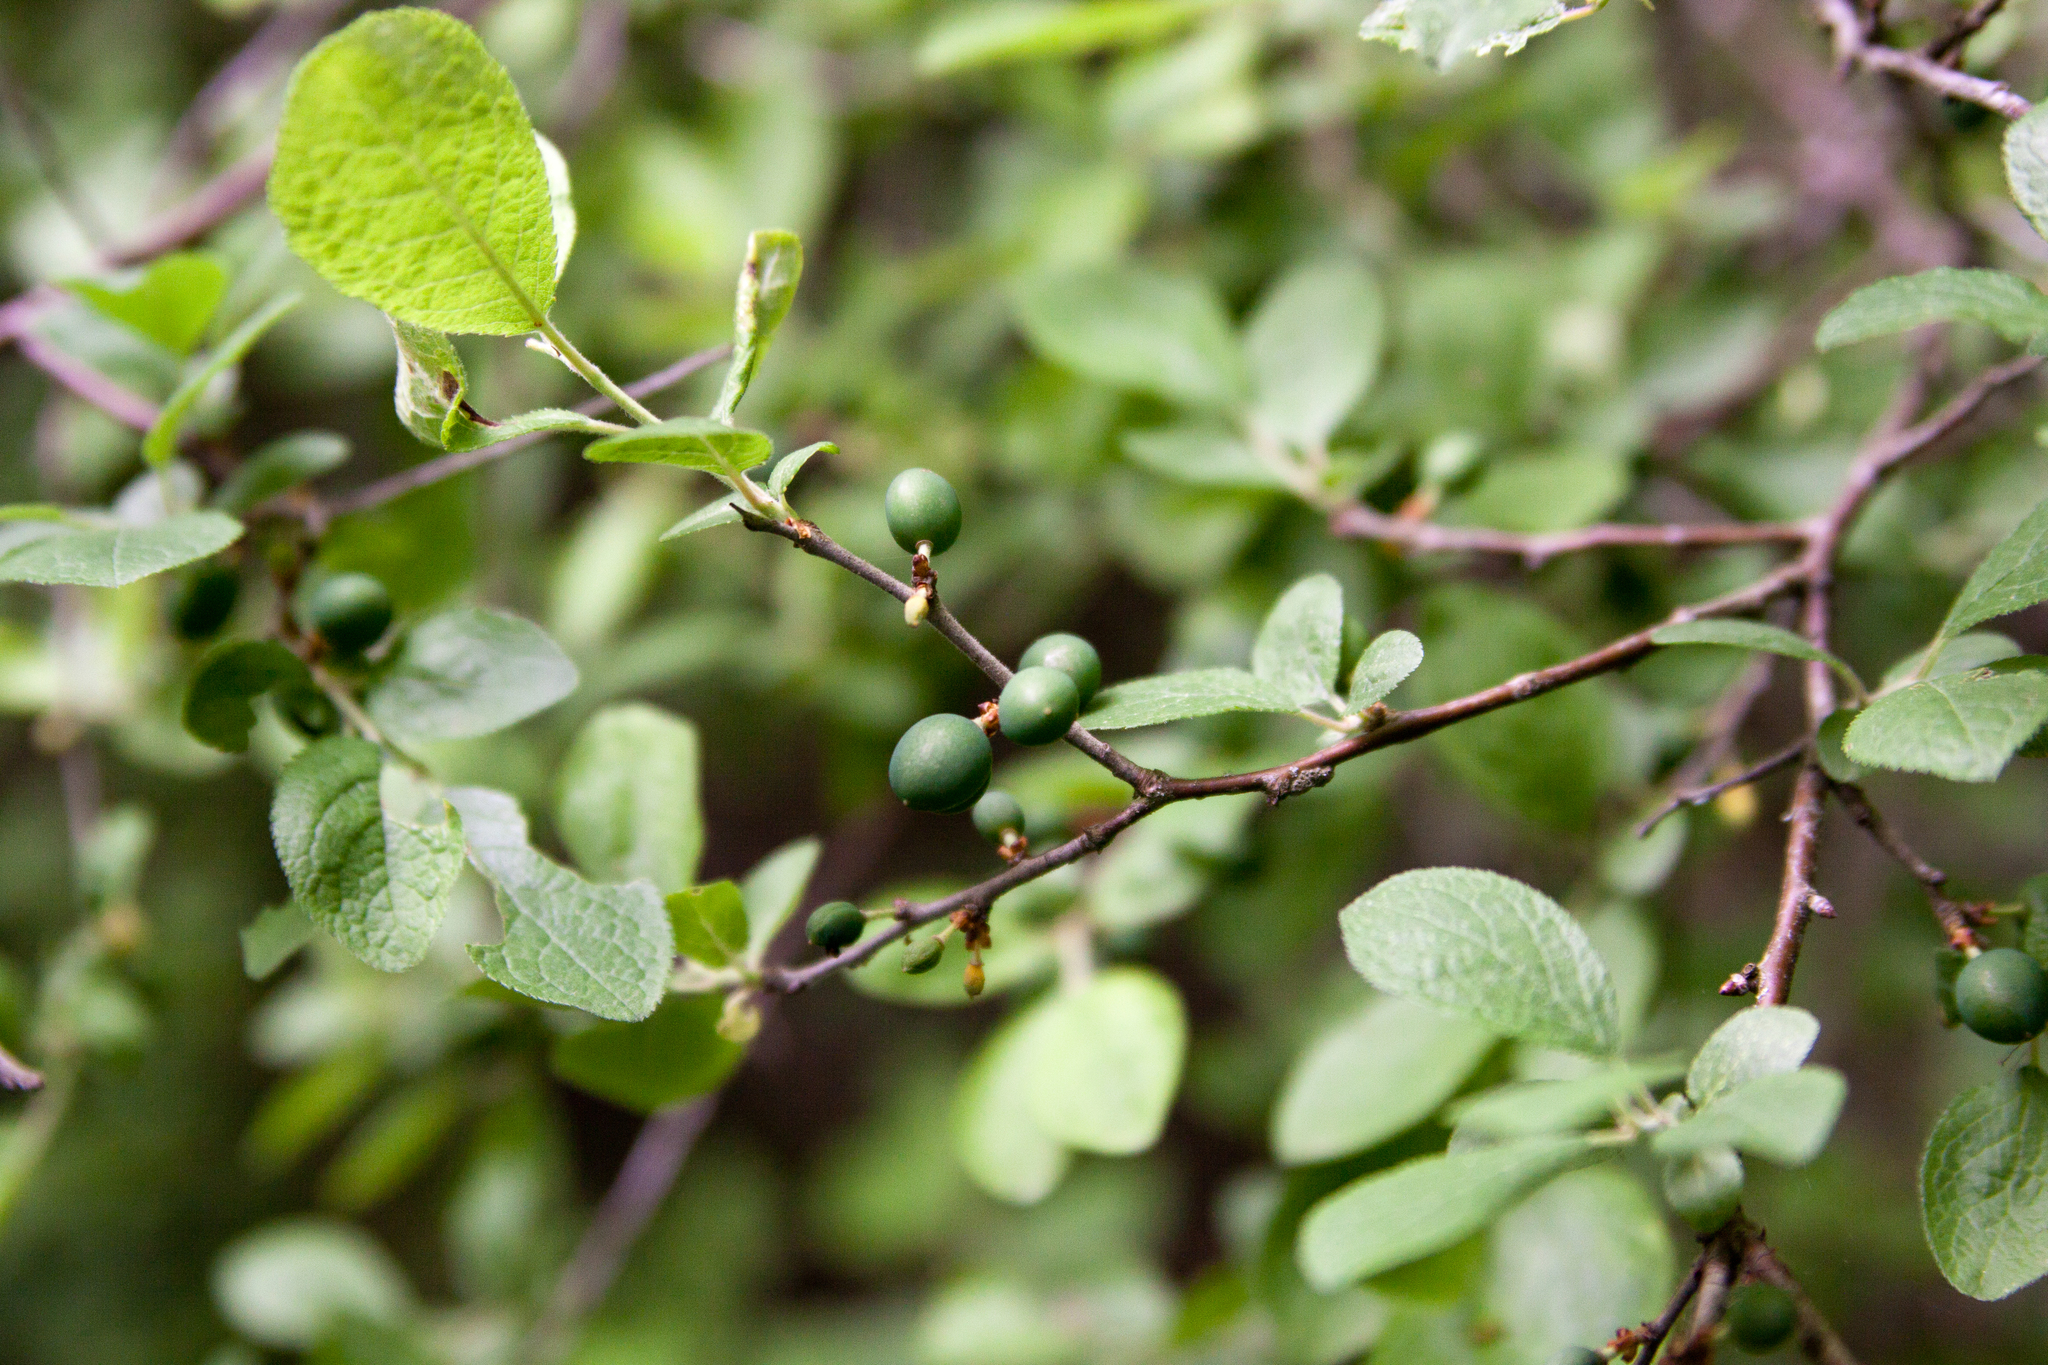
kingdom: Plantae
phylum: Tracheophyta
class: Magnoliopsida
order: Rosales
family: Rosaceae
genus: Prunus
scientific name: Prunus spinosa
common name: Blackthorn
